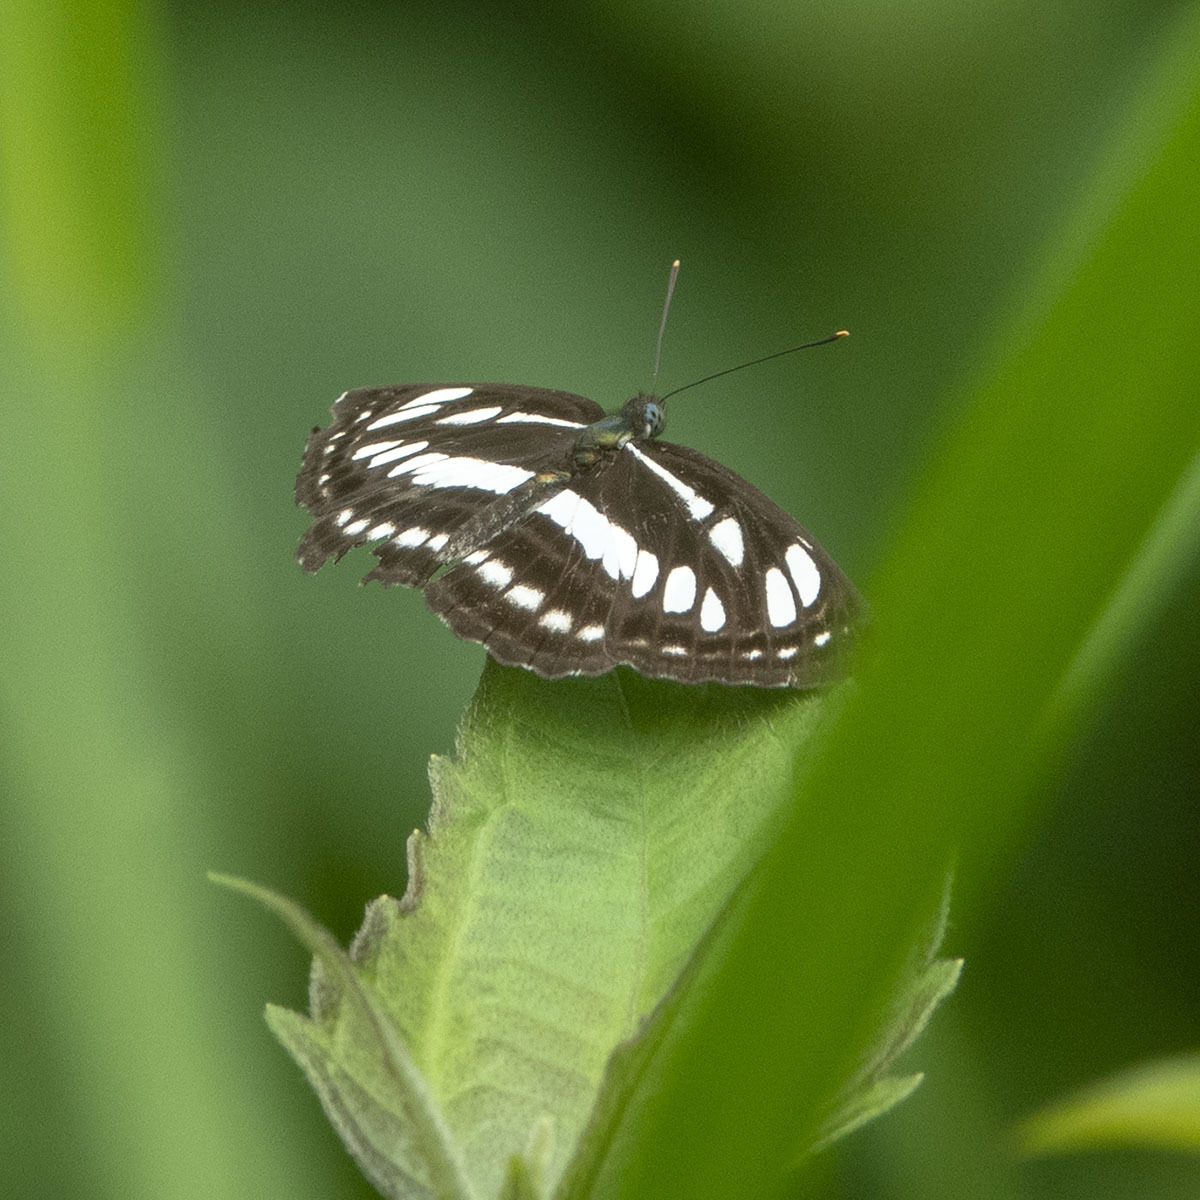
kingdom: Animalia
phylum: Arthropoda
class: Insecta
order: Lepidoptera
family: Nymphalidae
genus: Neptis
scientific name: Neptis hylas
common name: Common sailer
